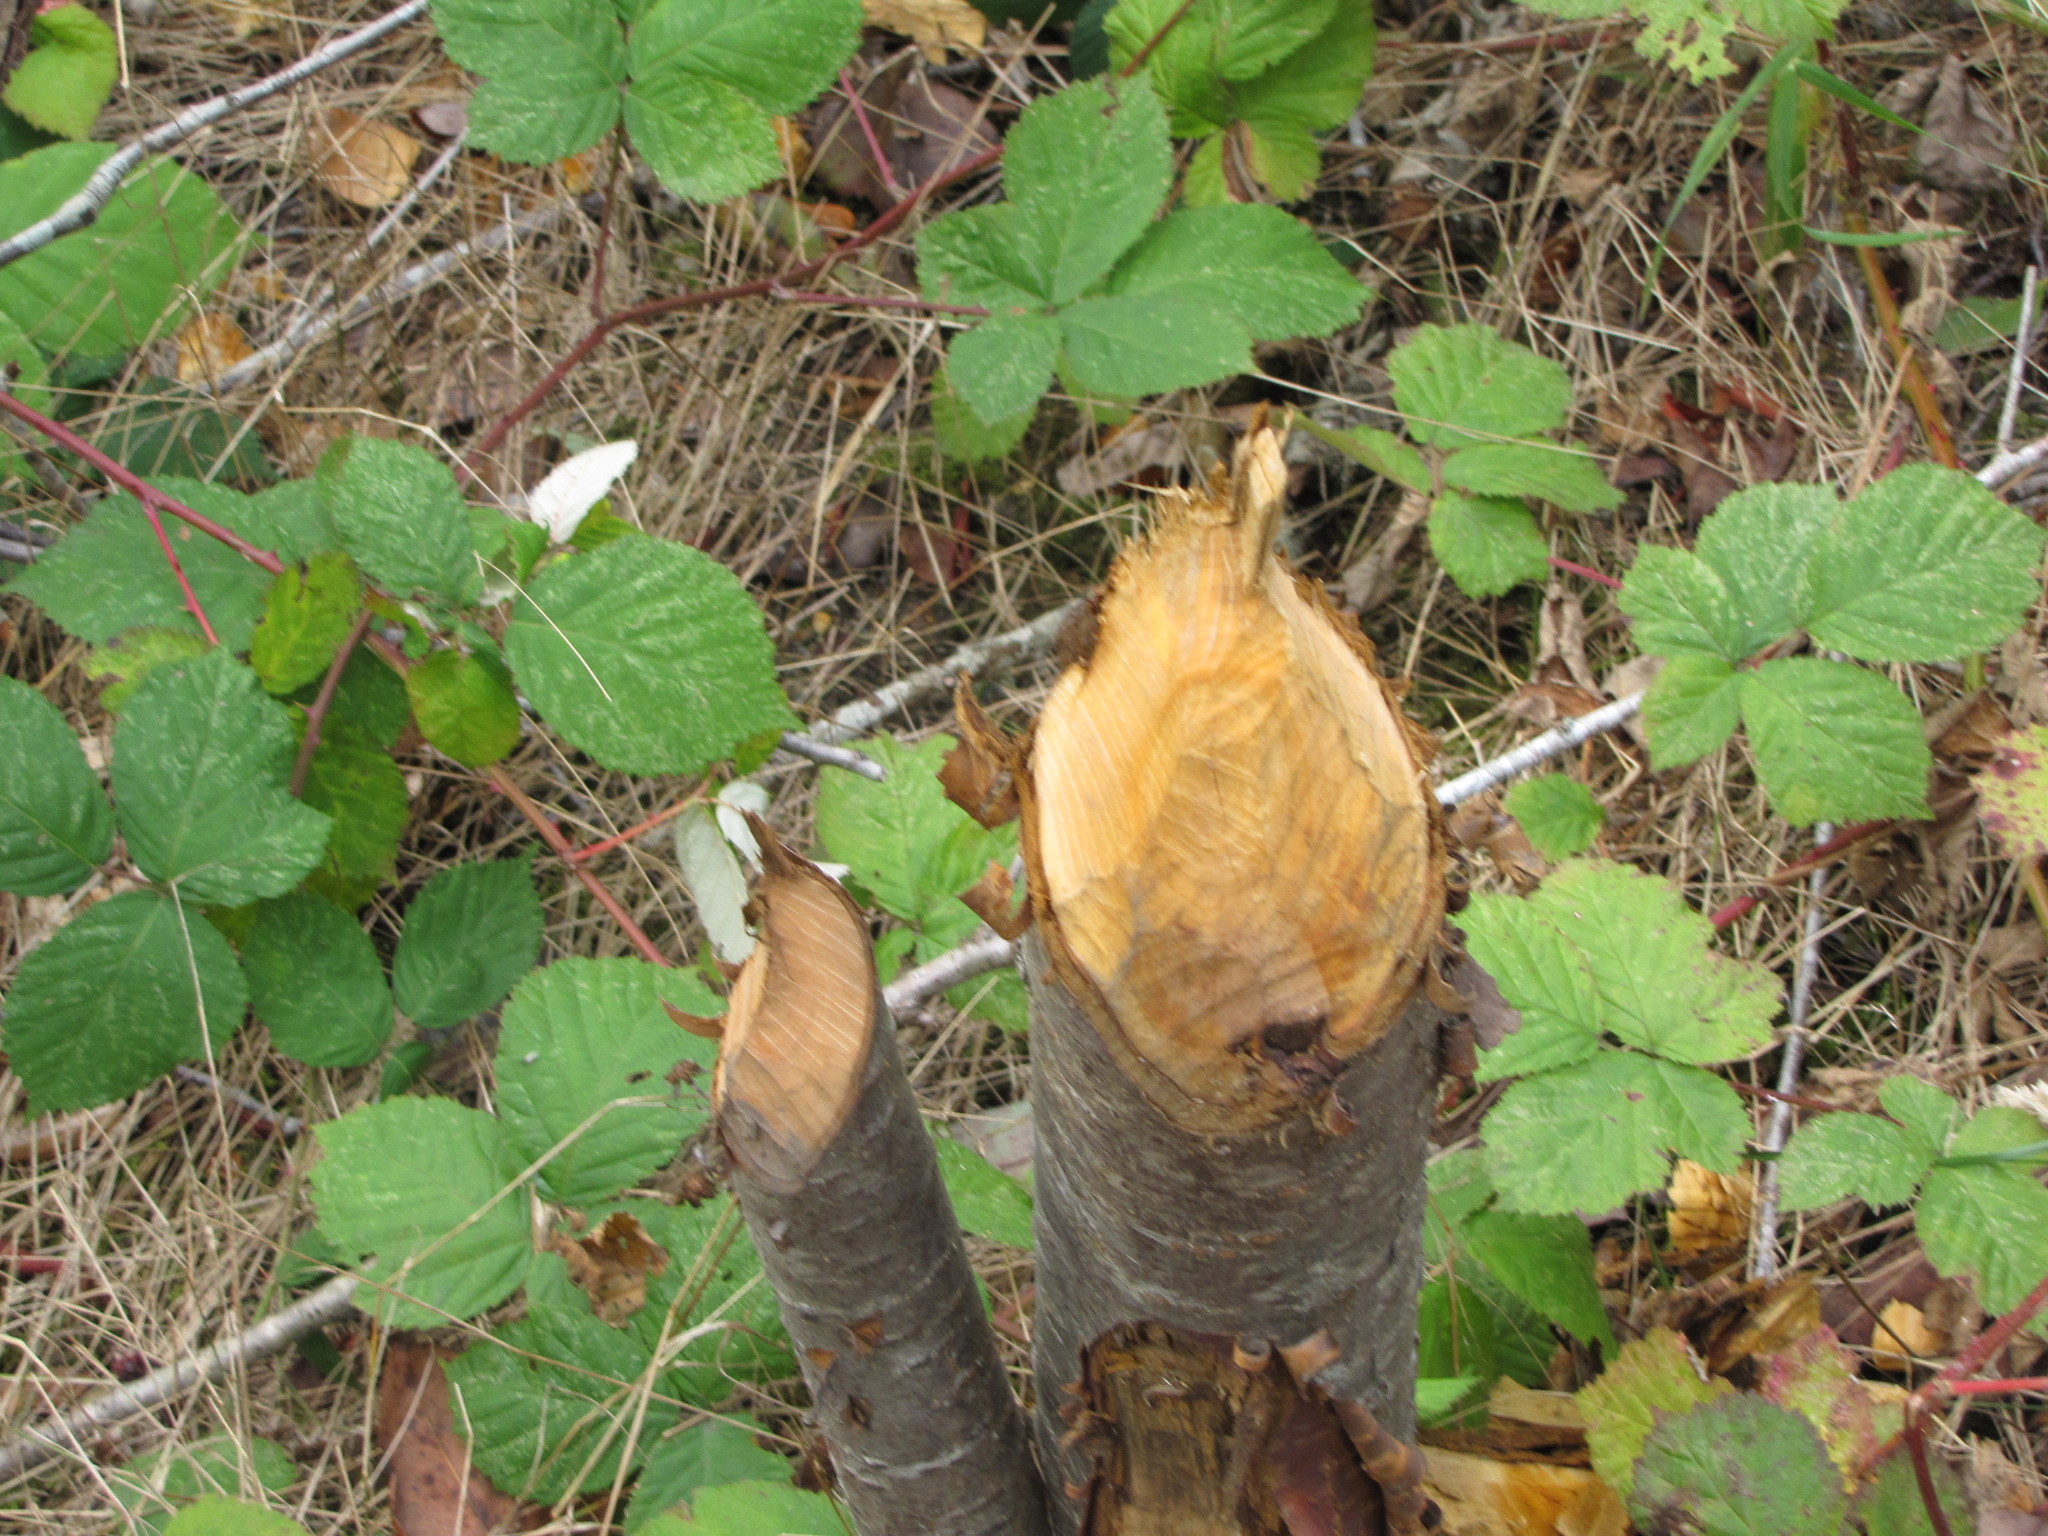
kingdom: Animalia
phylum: Chordata
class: Mammalia
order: Rodentia
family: Castoridae
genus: Castor
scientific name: Castor canadensis
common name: American beaver
